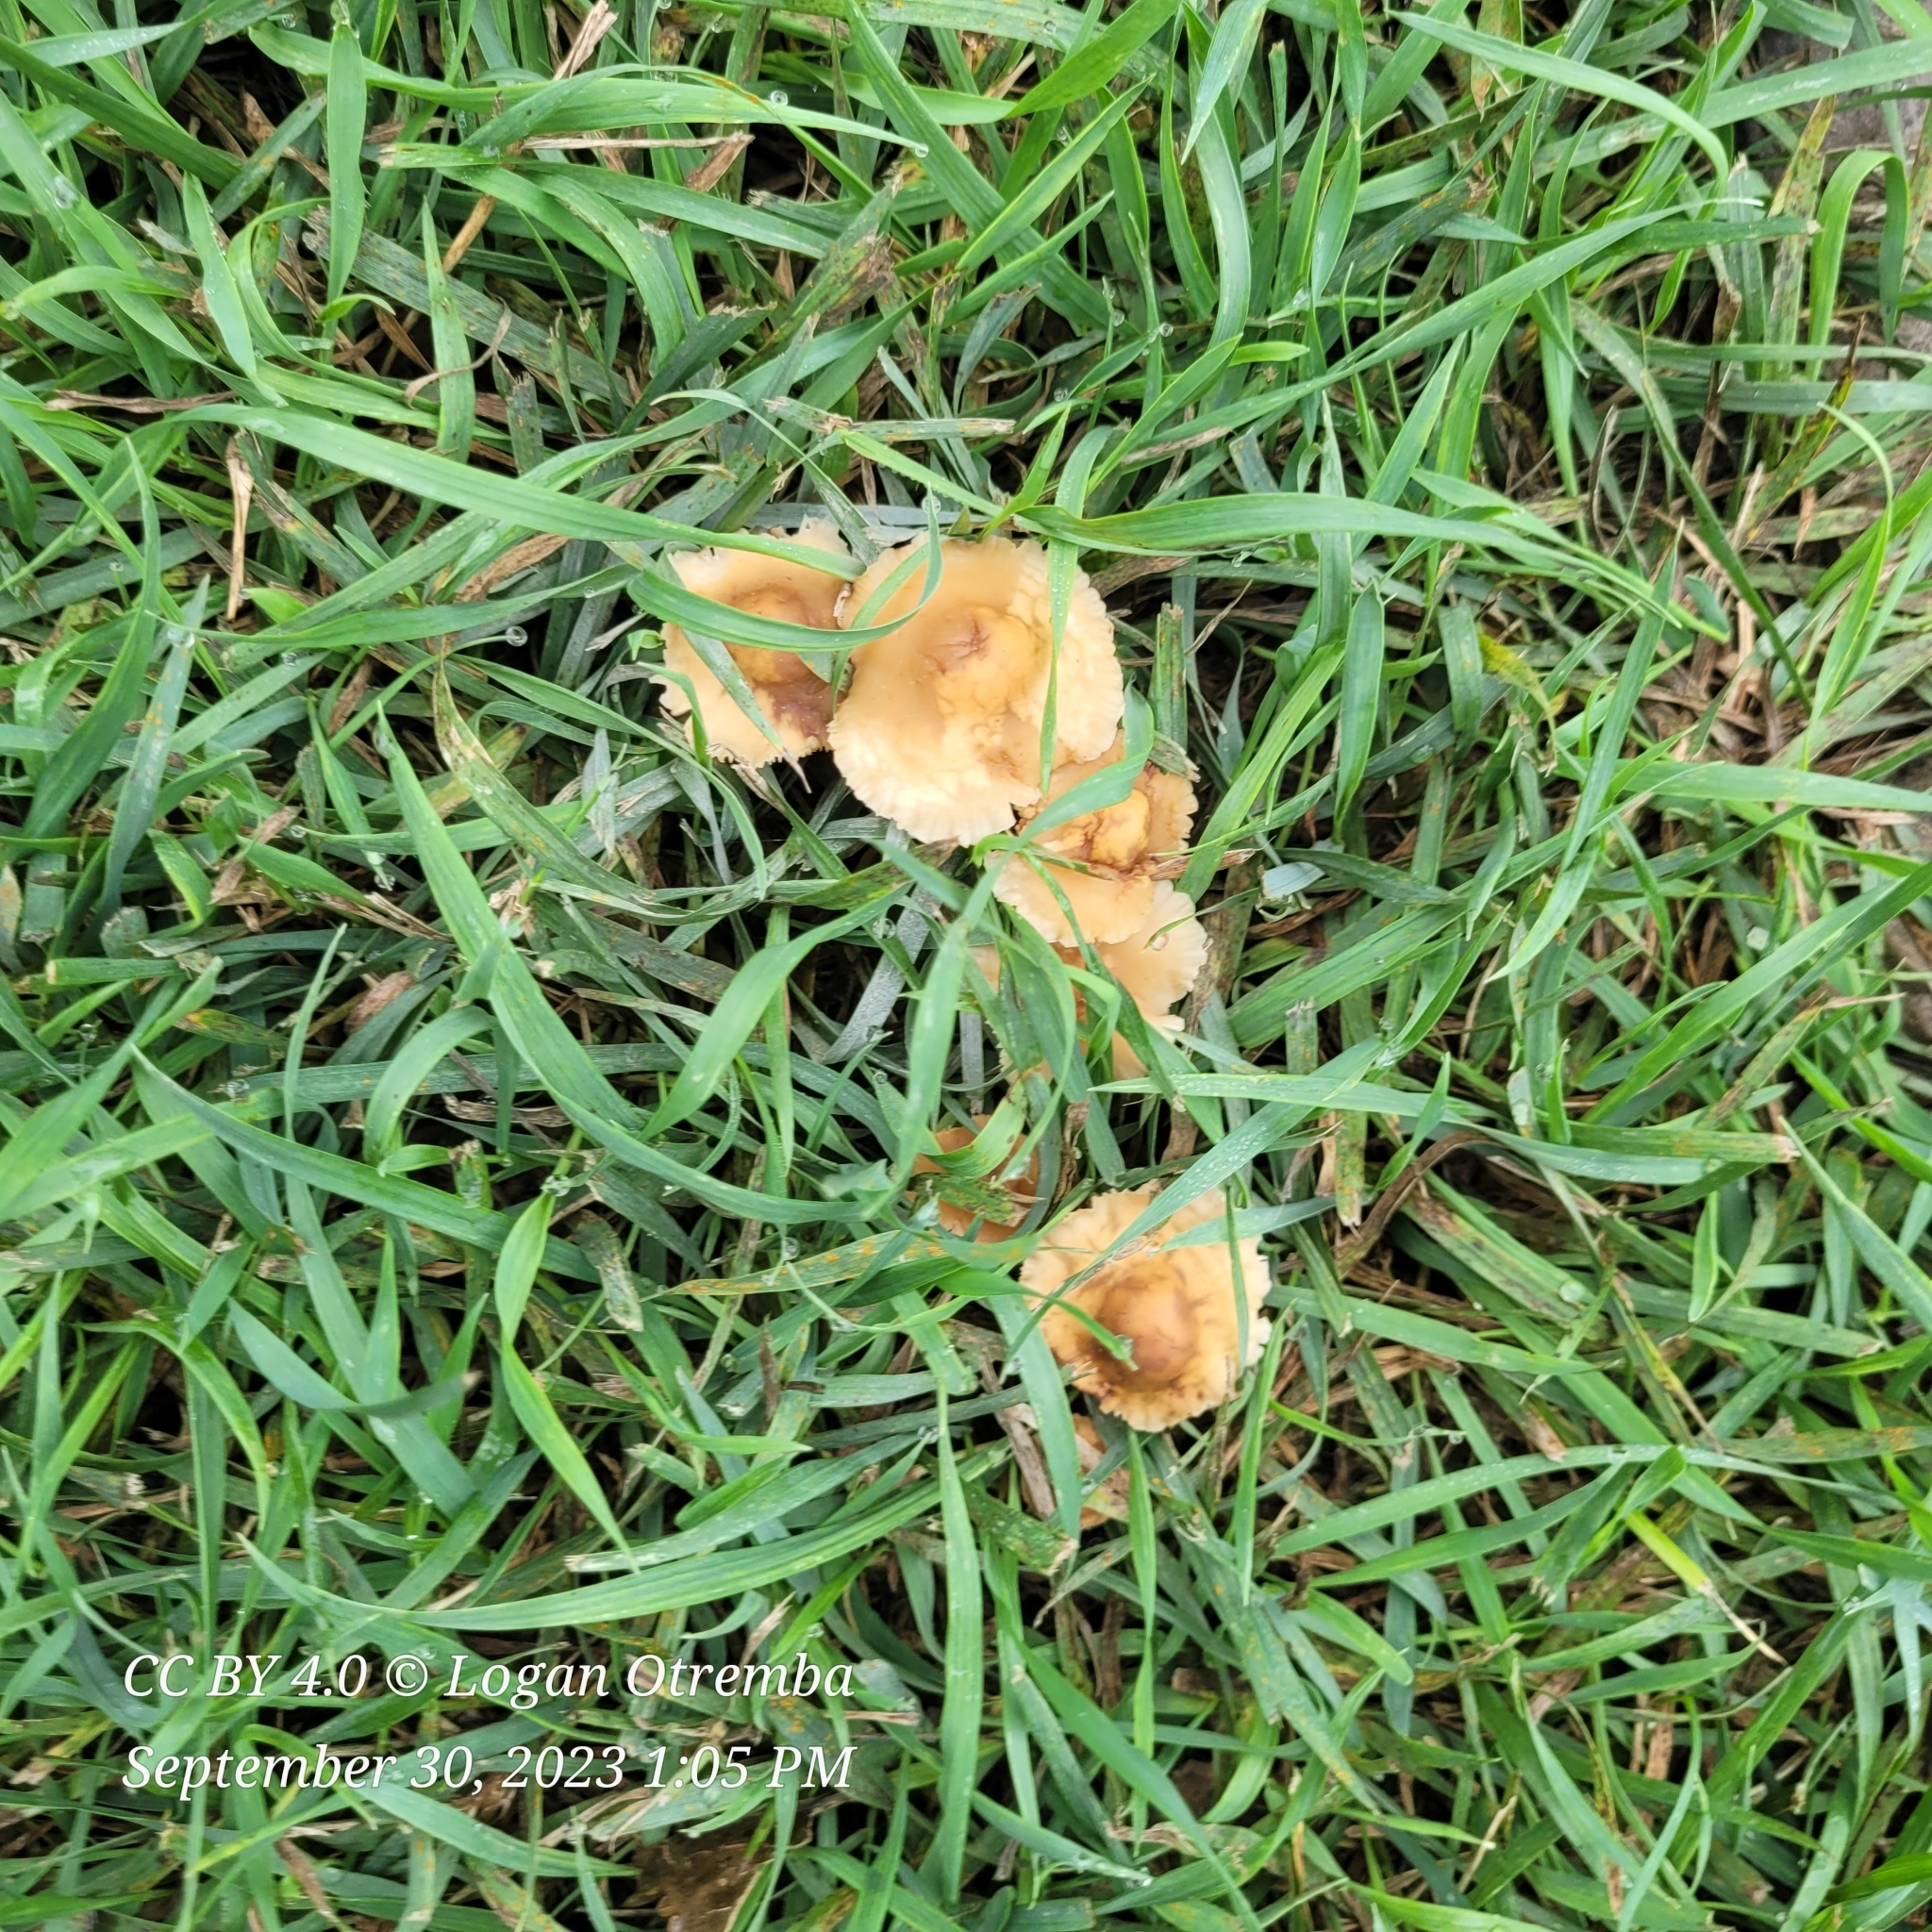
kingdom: Fungi
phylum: Basidiomycota
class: Agaricomycetes
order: Agaricales
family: Marasmiaceae
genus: Marasmius
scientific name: Marasmius oreades
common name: Fairy ring champignon
